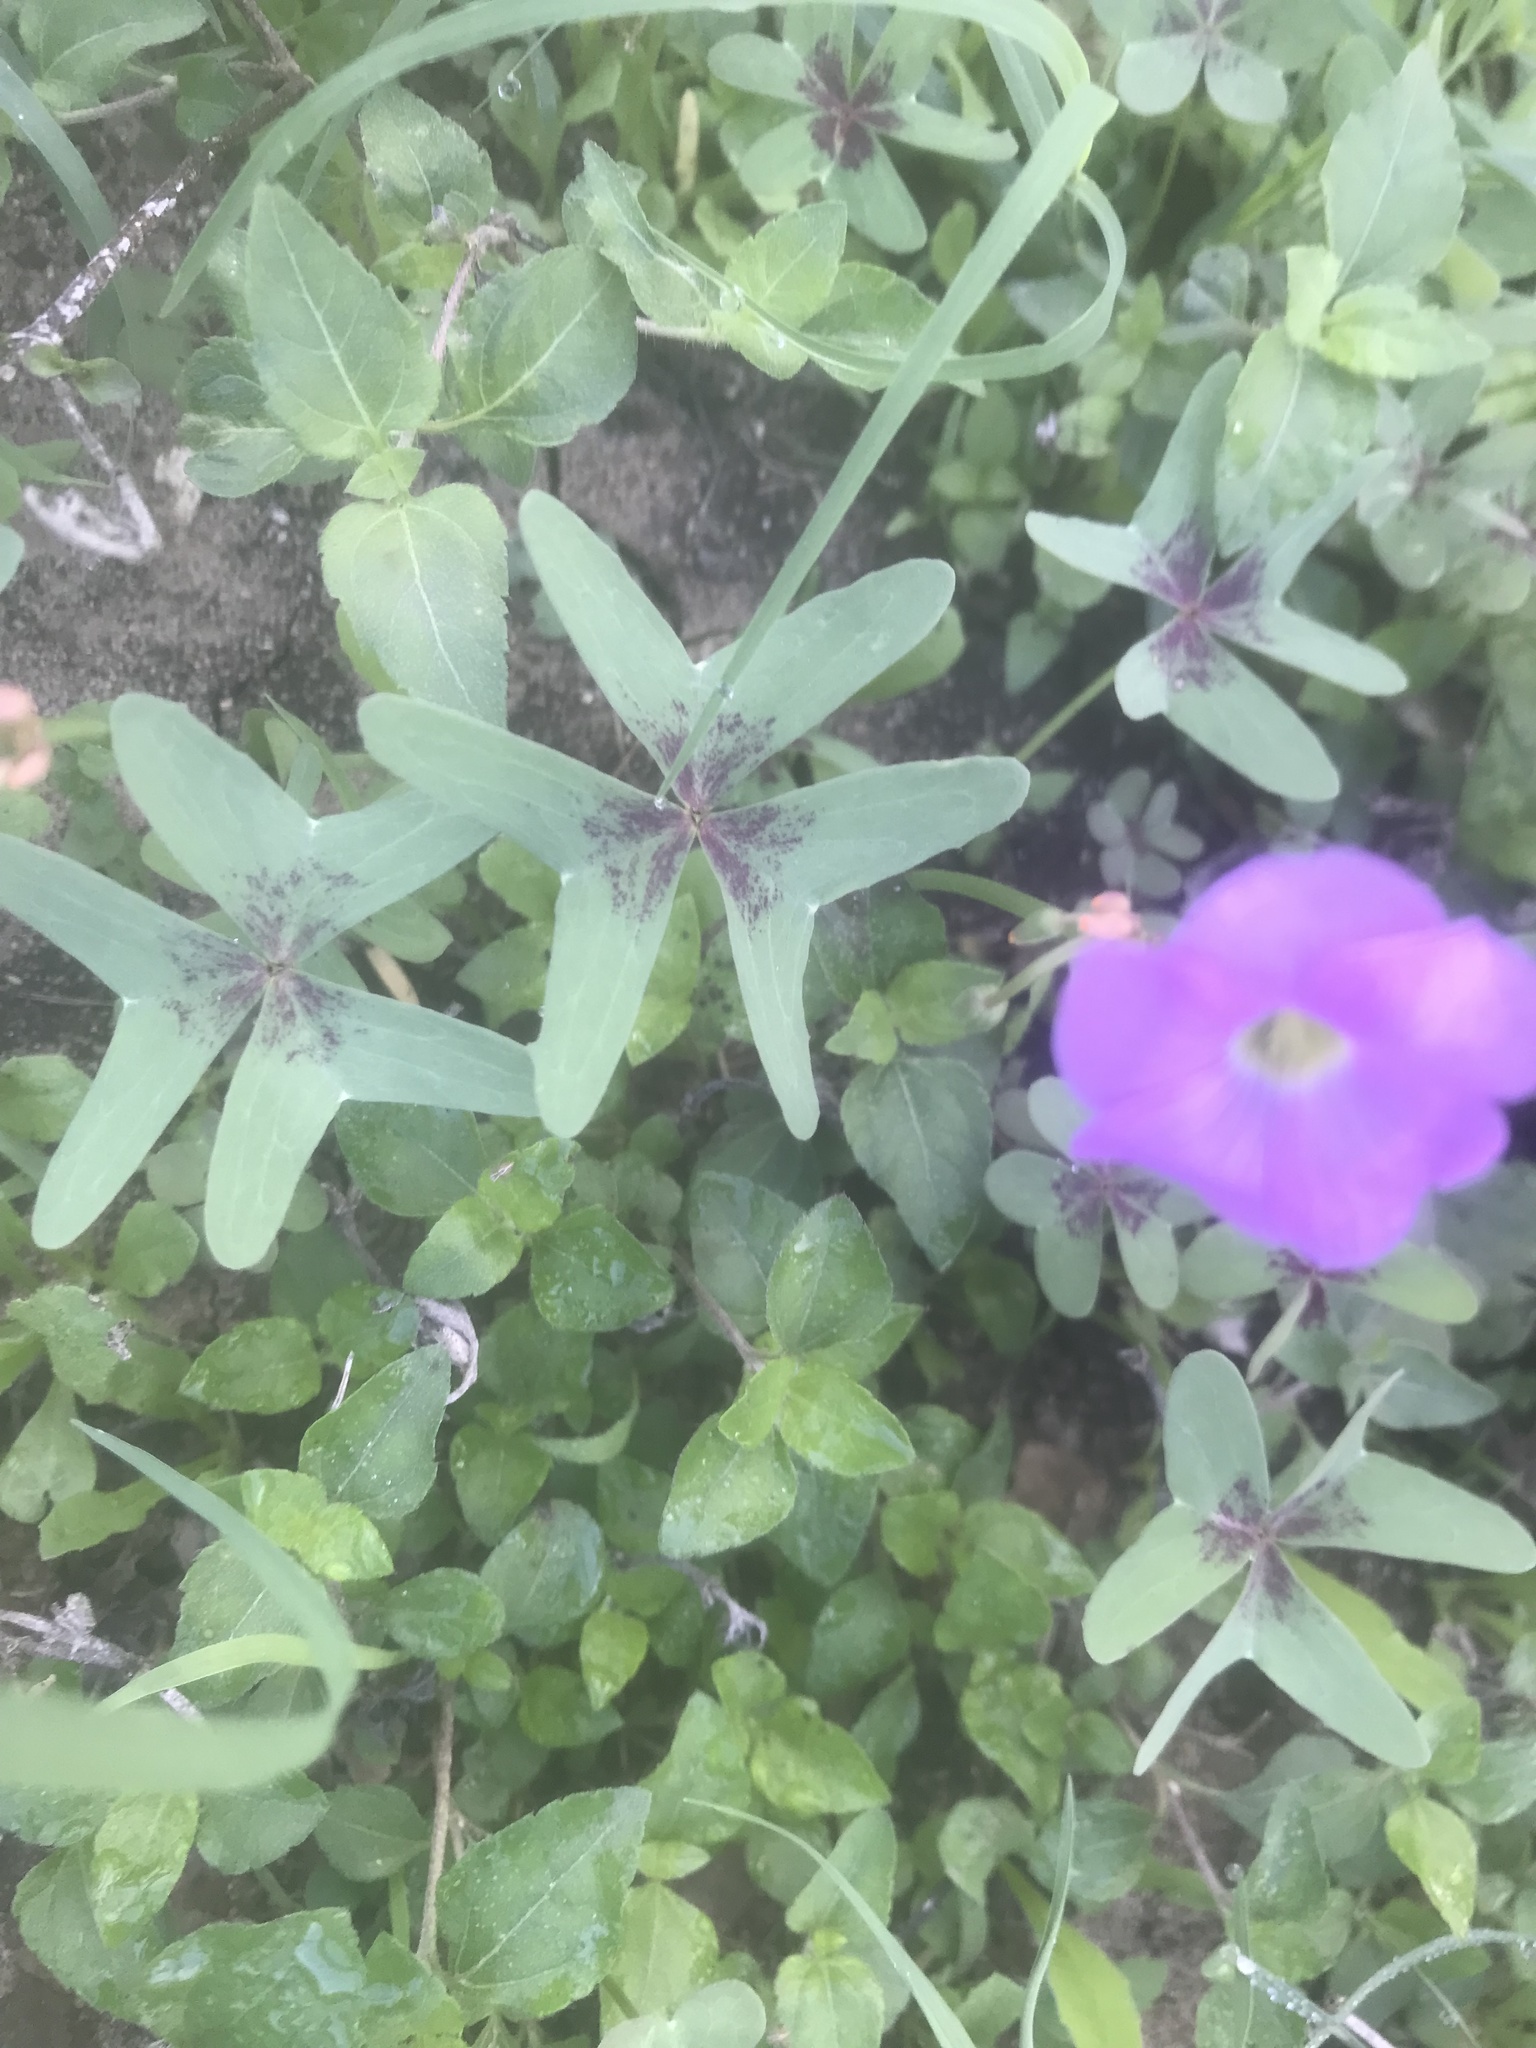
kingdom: Plantae
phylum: Tracheophyta
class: Magnoliopsida
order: Oxalidales
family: Oxalidaceae
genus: Oxalis
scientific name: Oxalis drummondii
